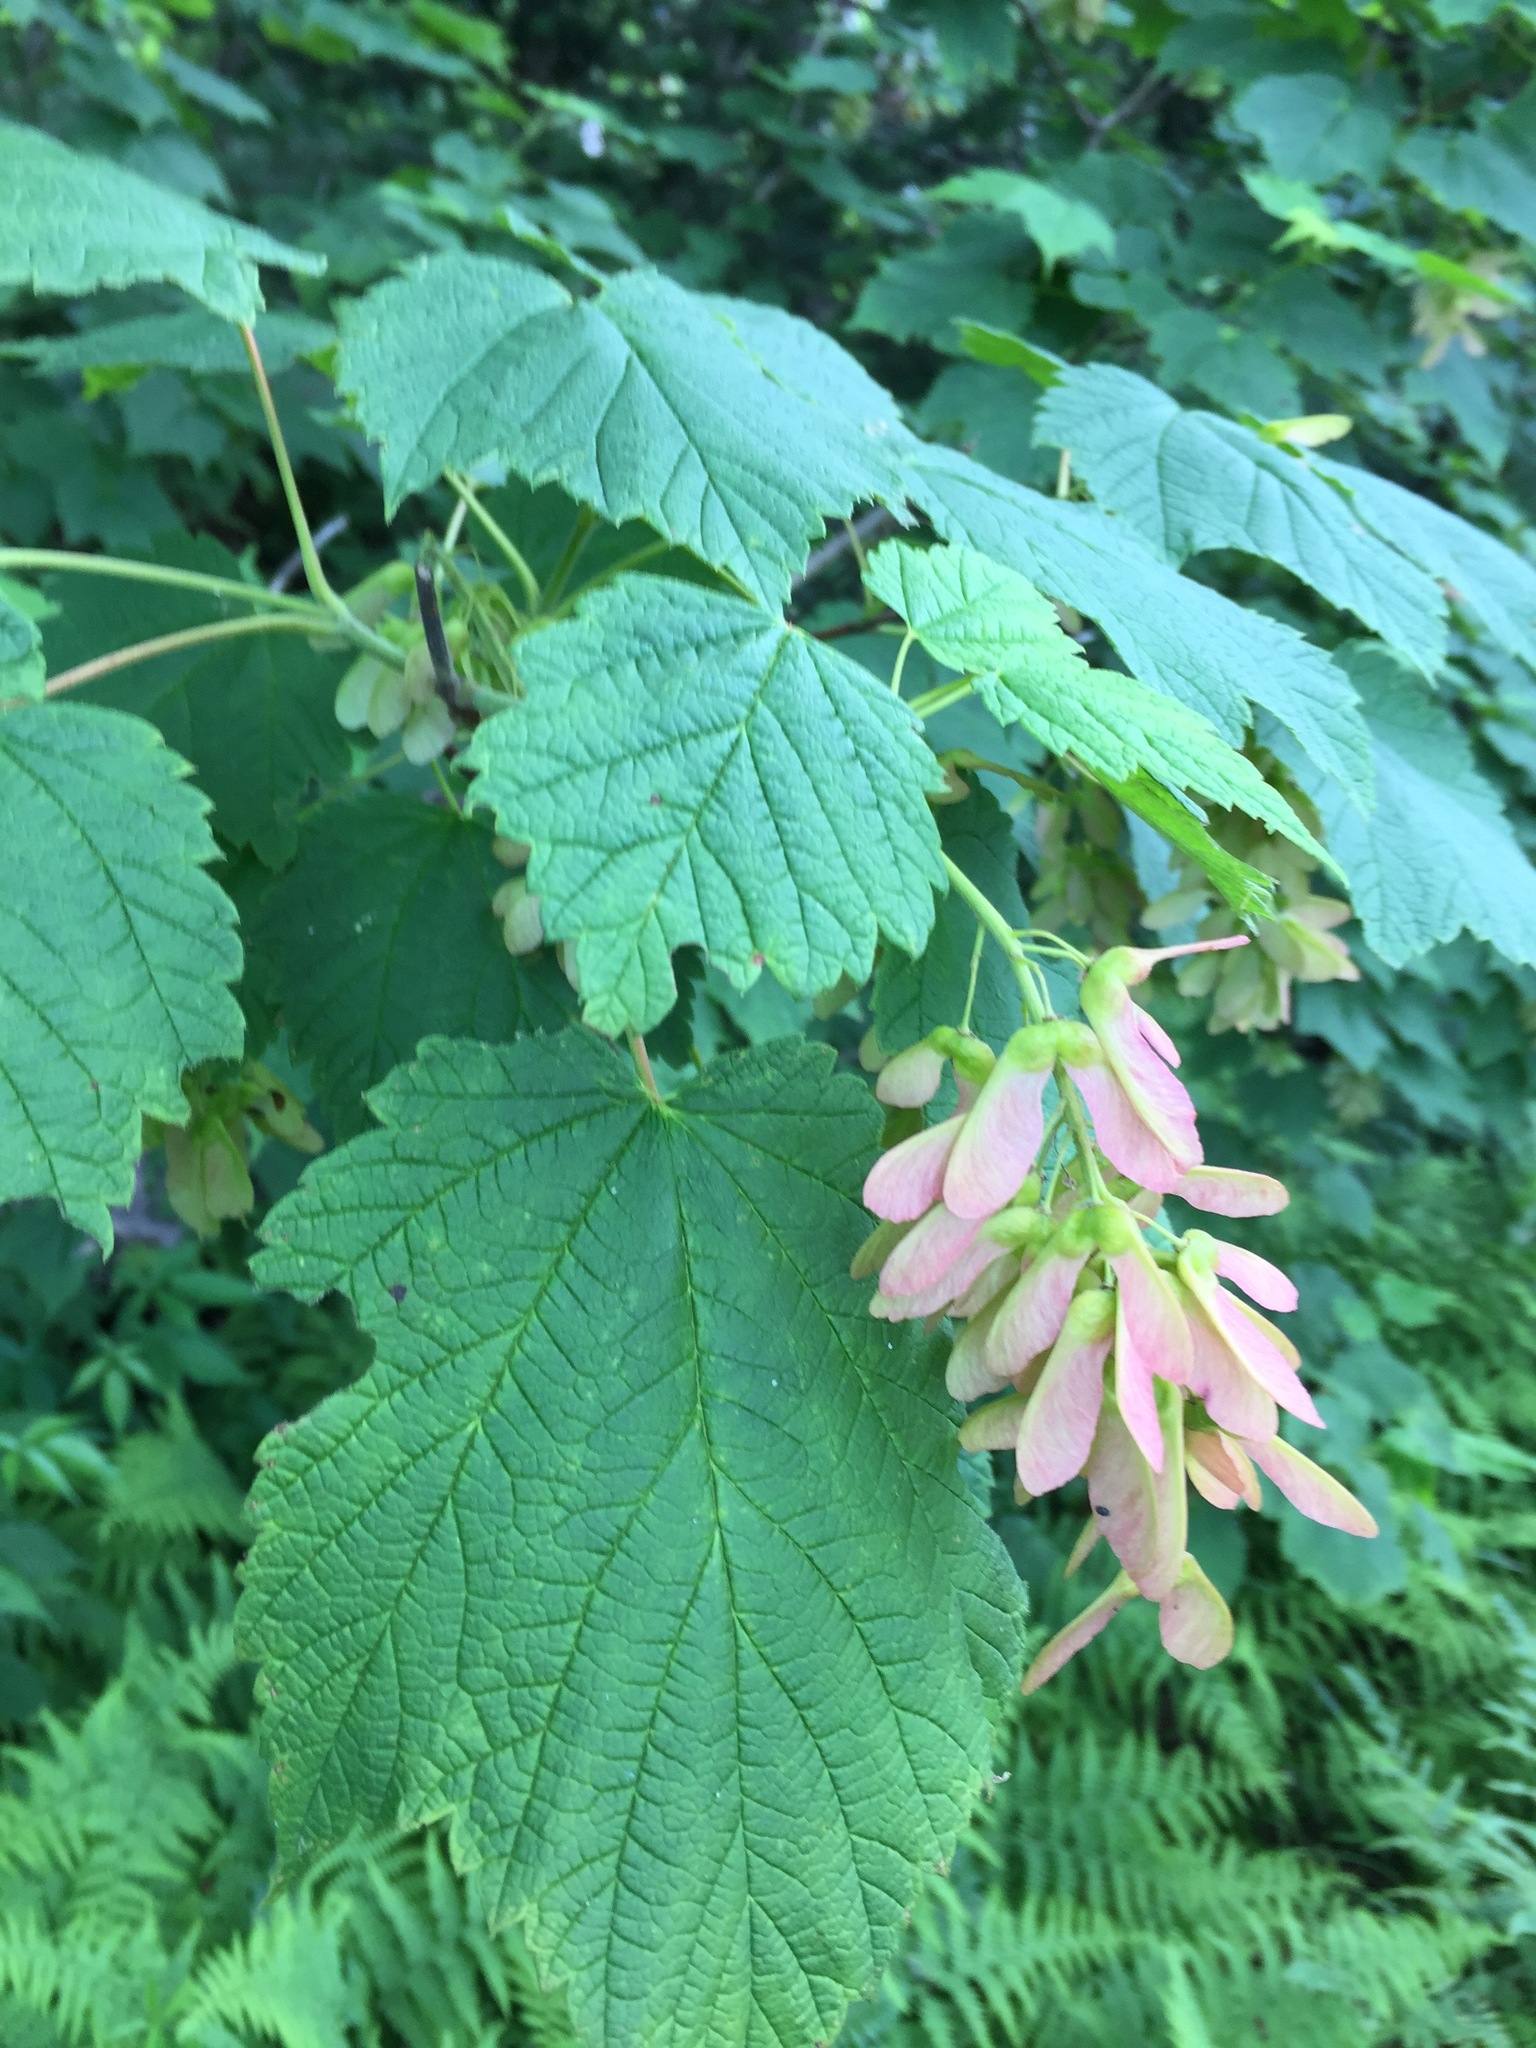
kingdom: Plantae
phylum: Tracheophyta
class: Magnoliopsida
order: Sapindales
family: Sapindaceae
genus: Acer
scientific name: Acer spicatum
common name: Mountain maple
